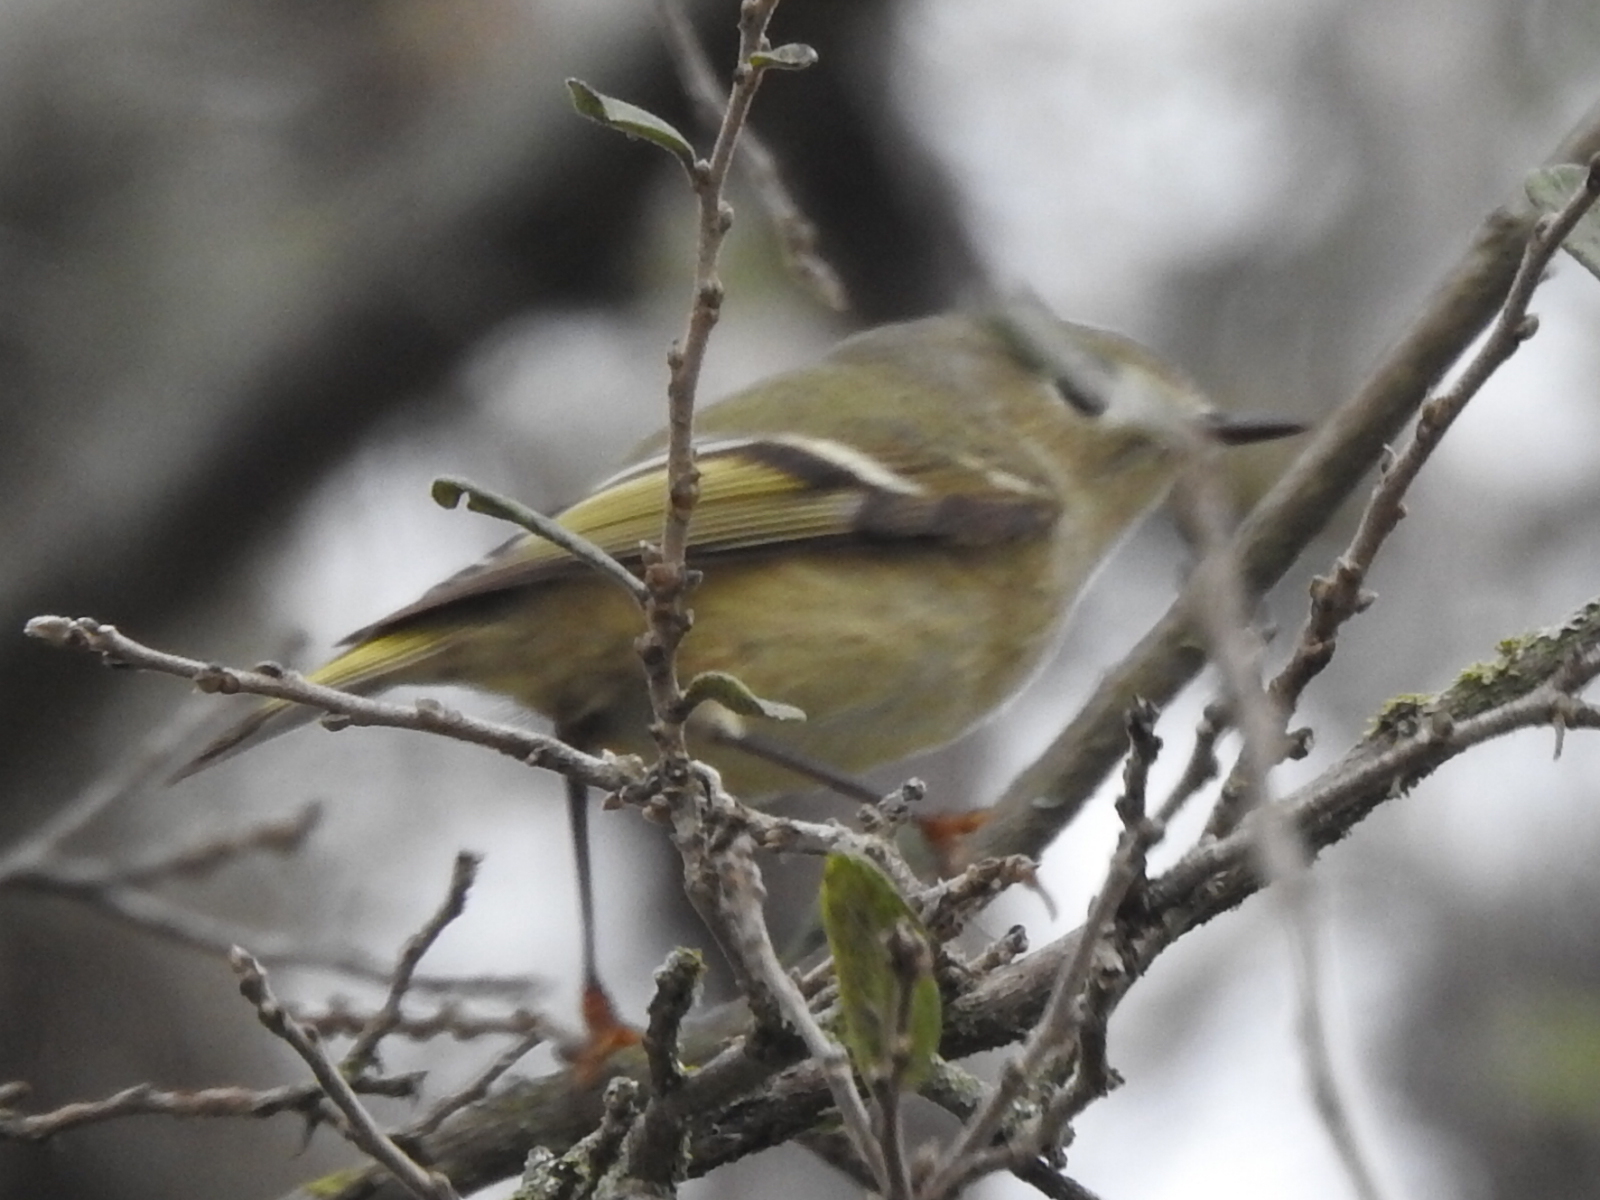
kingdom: Animalia
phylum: Chordata
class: Aves
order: Passeriformes
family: Regulidae
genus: Regulus
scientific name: Regulus calendula
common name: Ruby-crowned kinglet
